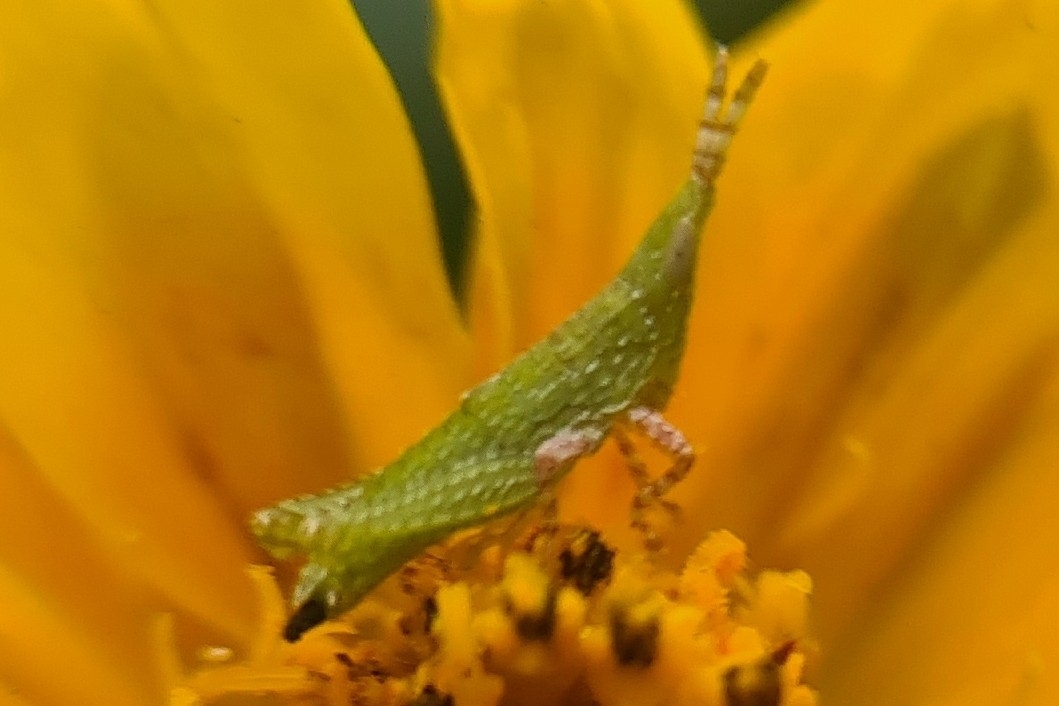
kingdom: Animalia
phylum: Arthropoda
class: Insecta
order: Orthoptera
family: Pyrgomorphidae
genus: Atractomorpha
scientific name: Atractomorpha similis
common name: Northern grass pyrgomorph
